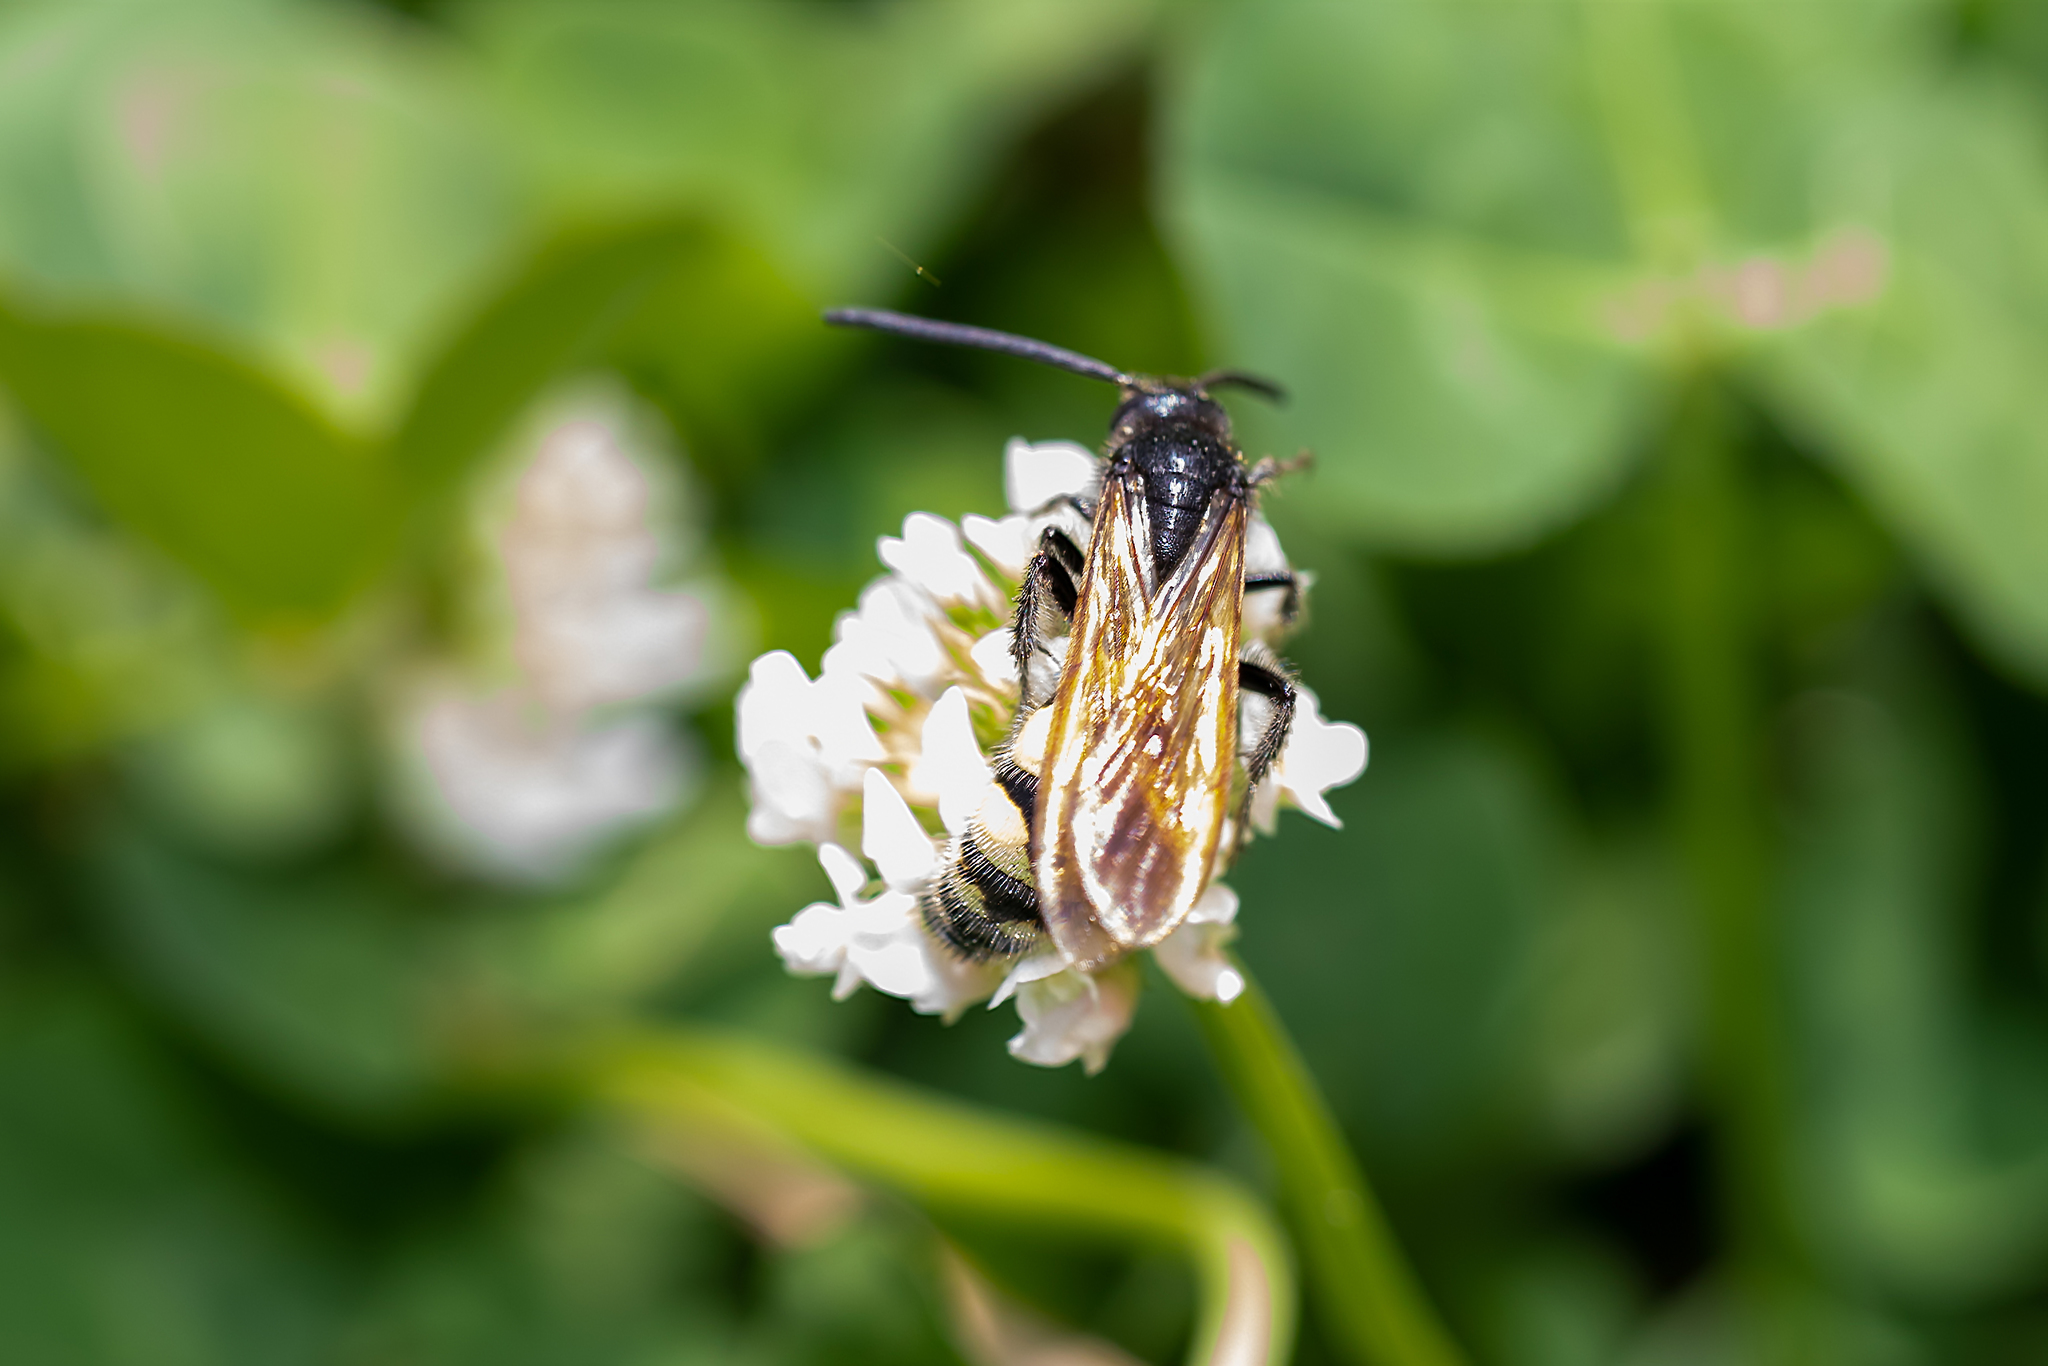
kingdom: Animalia
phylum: Arthropoda
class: Insecta
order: Hymenoptera
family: Scoliidae
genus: Pygodasis
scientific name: Pygodasis
